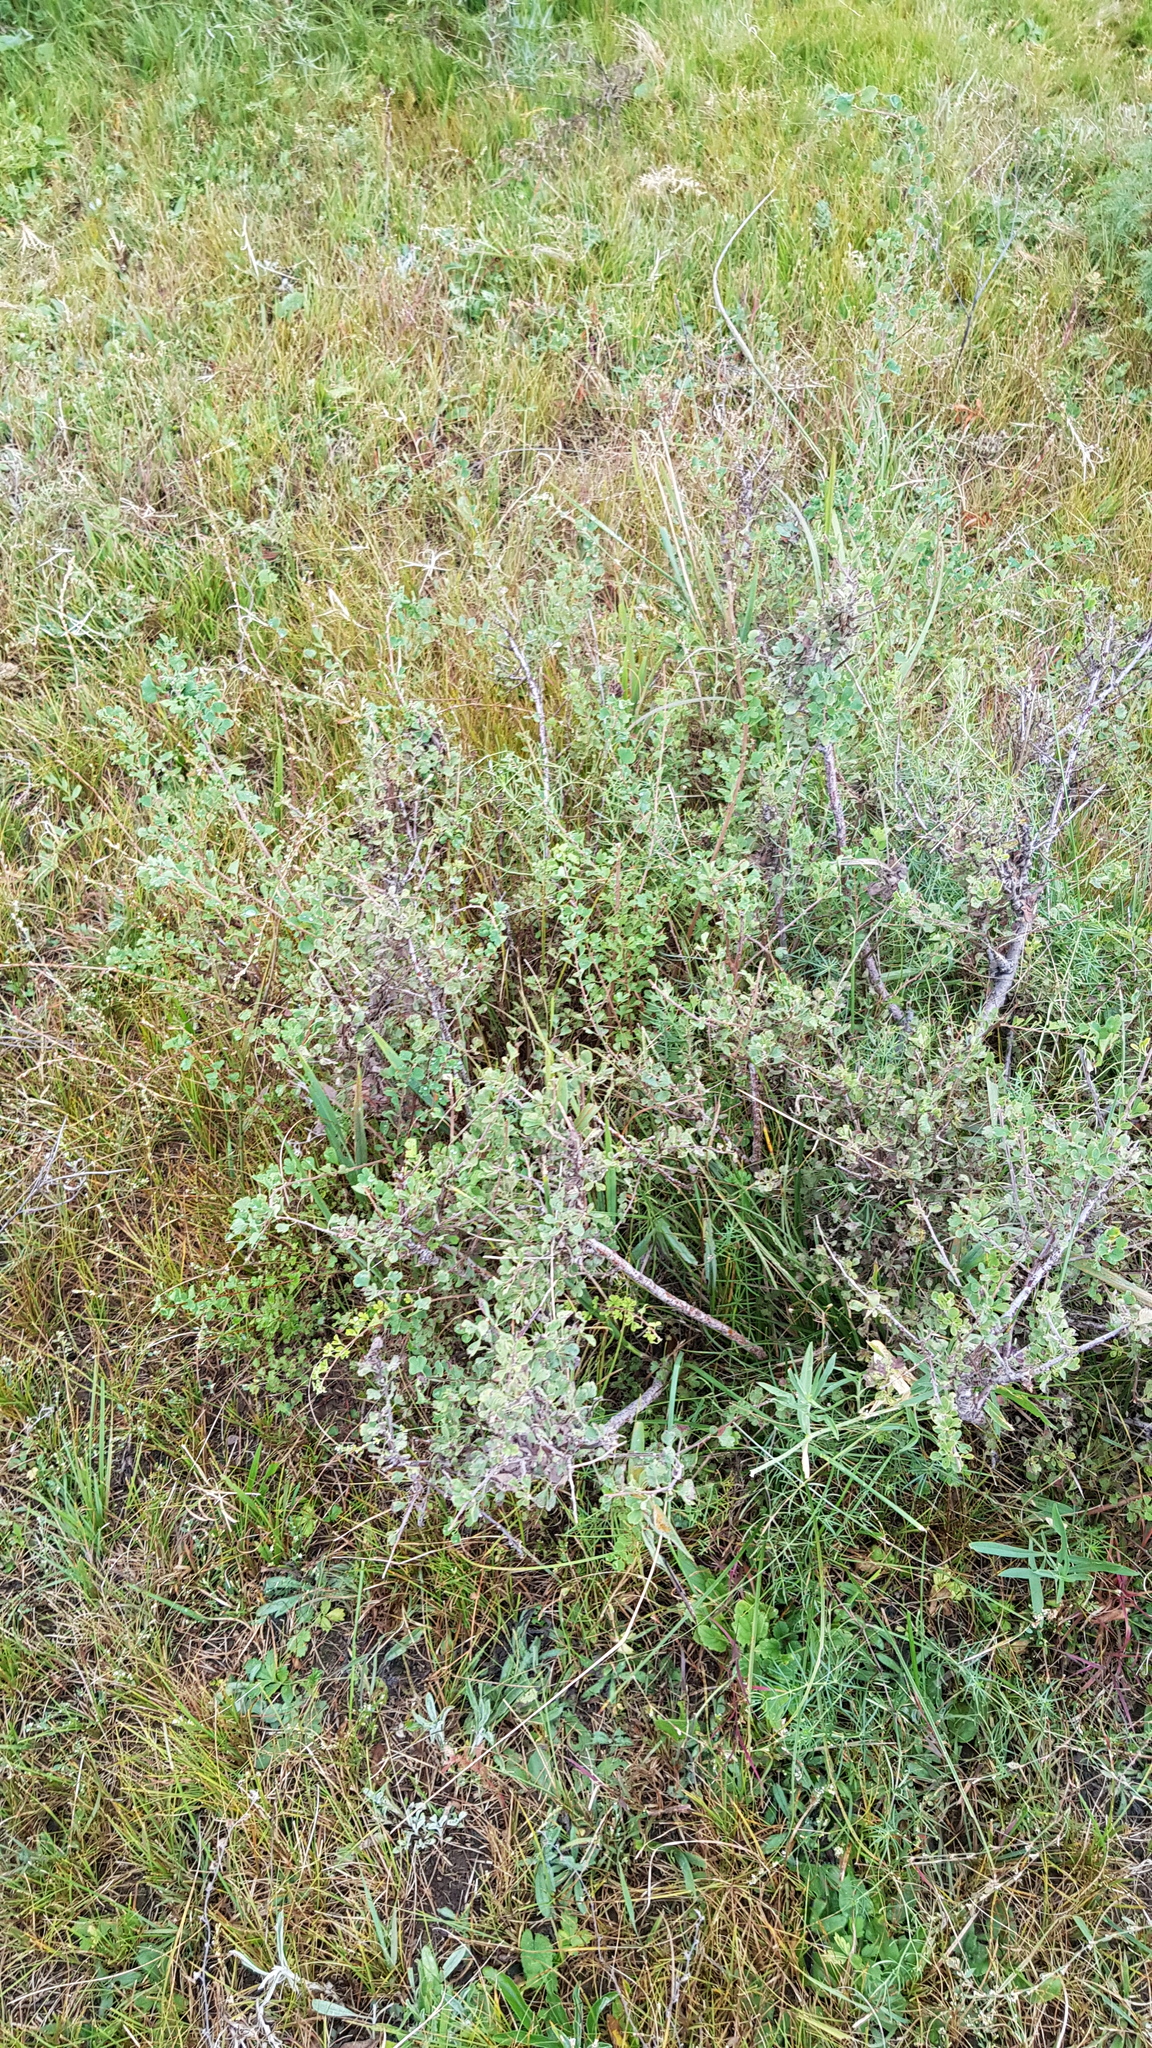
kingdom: Plantae
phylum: Tracheophyta
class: Magnoliopsida
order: Rosales
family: Rosaceae
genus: Spiraea
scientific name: Spiraea aquilegifolia
